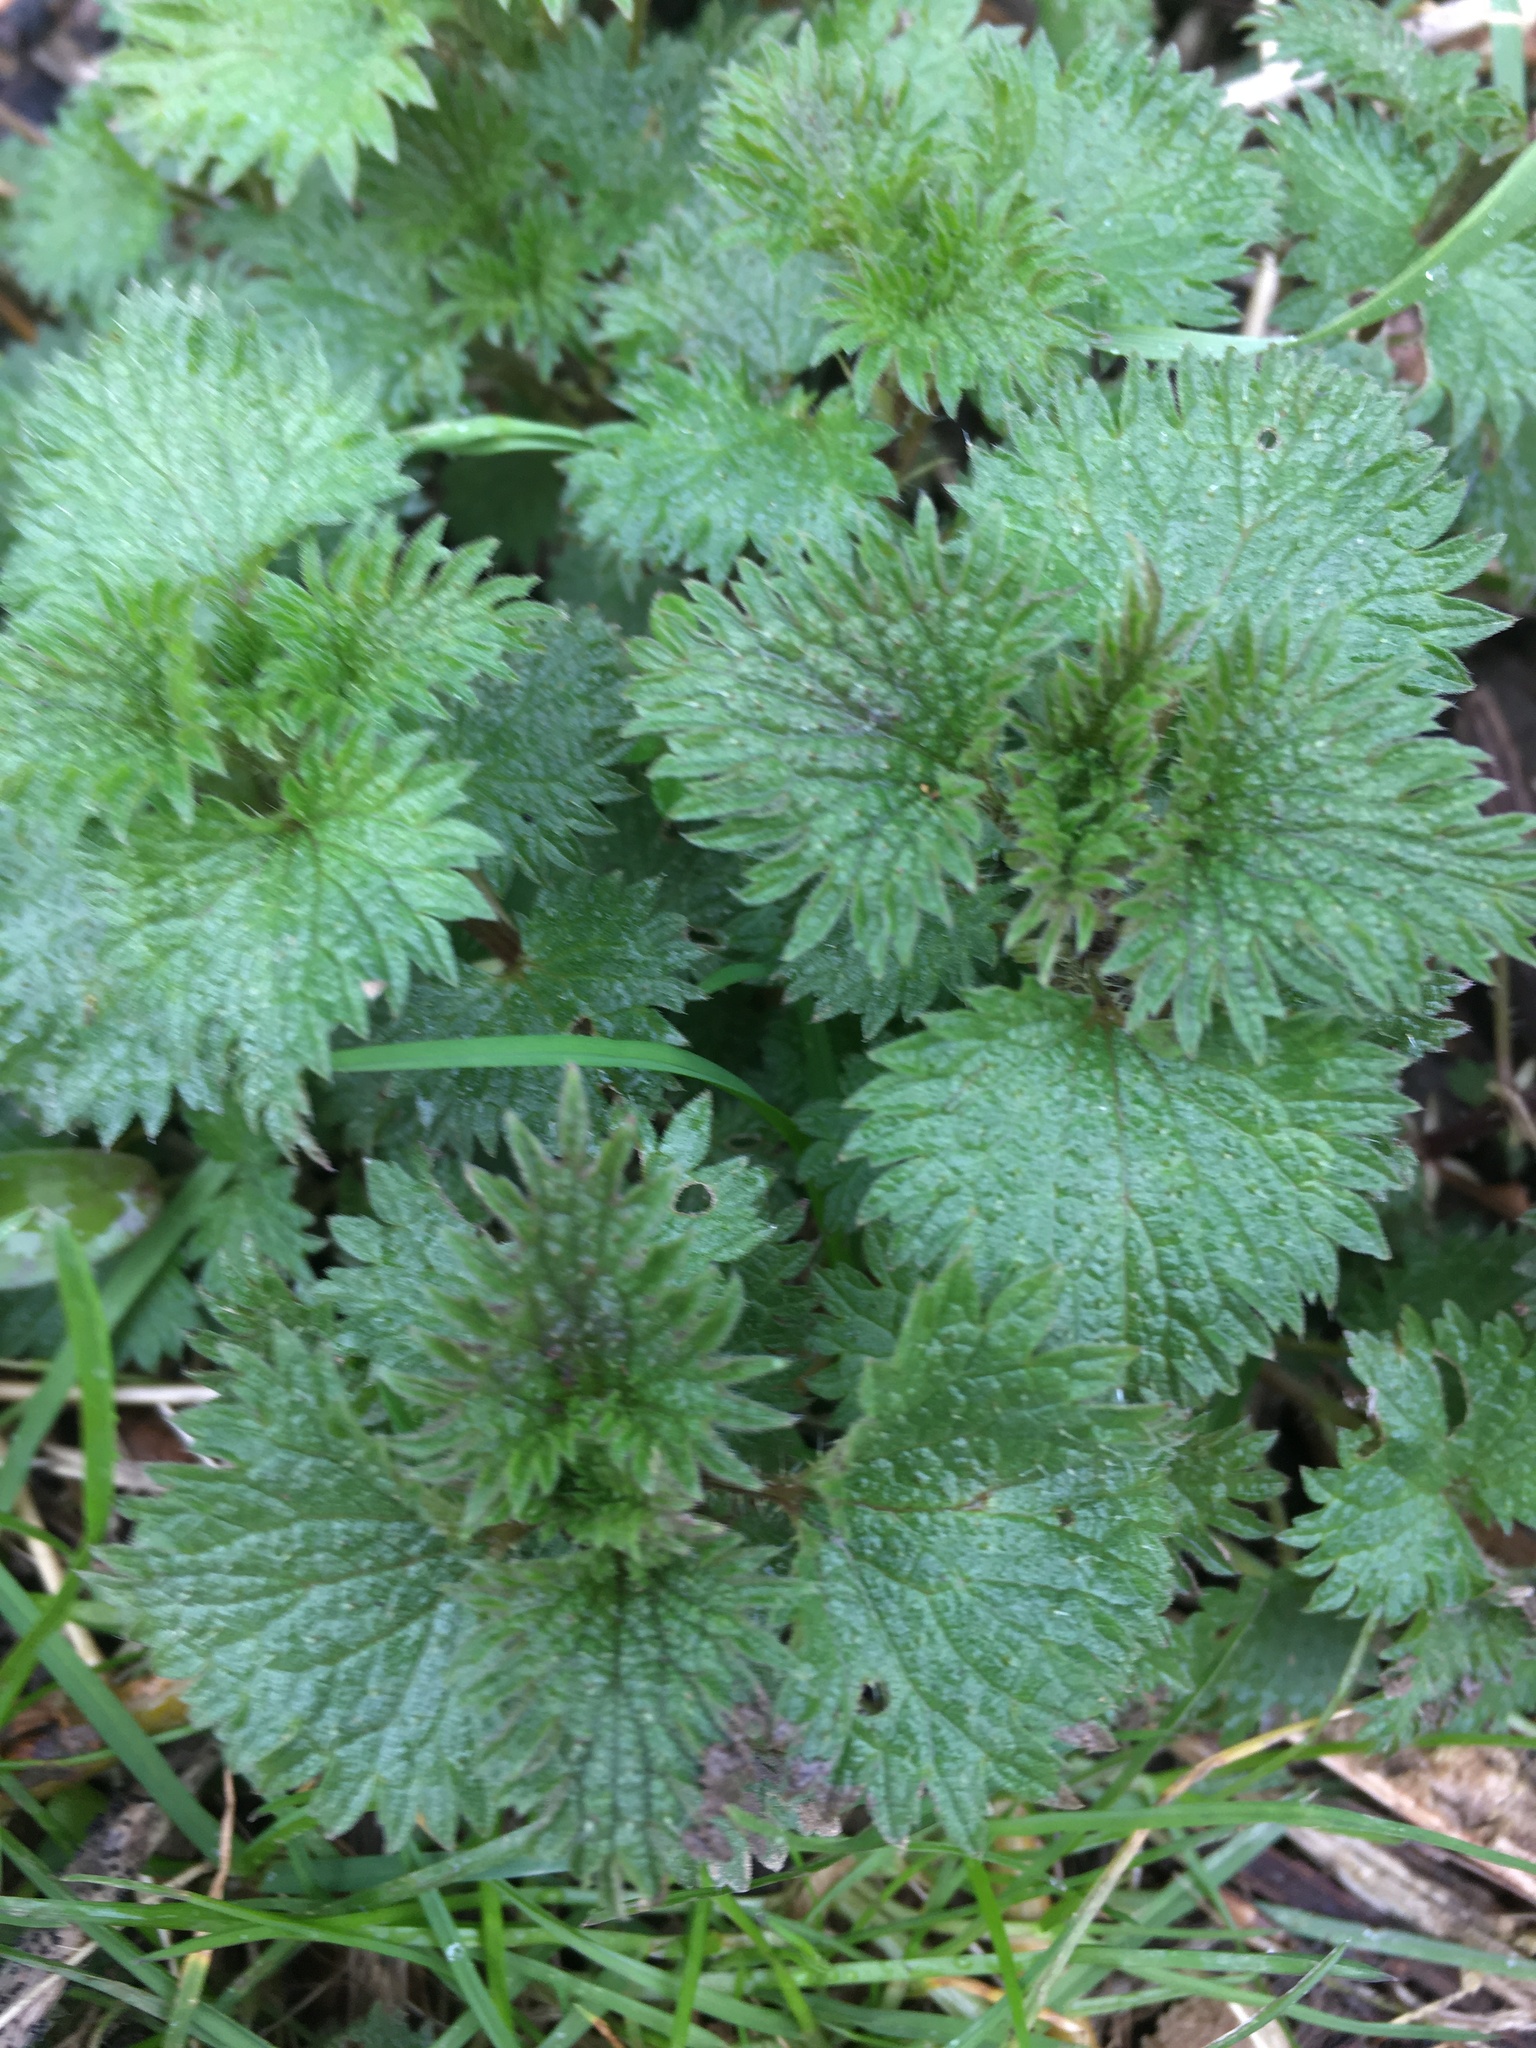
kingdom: Plantae
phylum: Tracheophyta
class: Magnoliopsida
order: Rosales
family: Urticaceae
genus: Urtica
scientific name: Urtica dioica
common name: Common nettle
